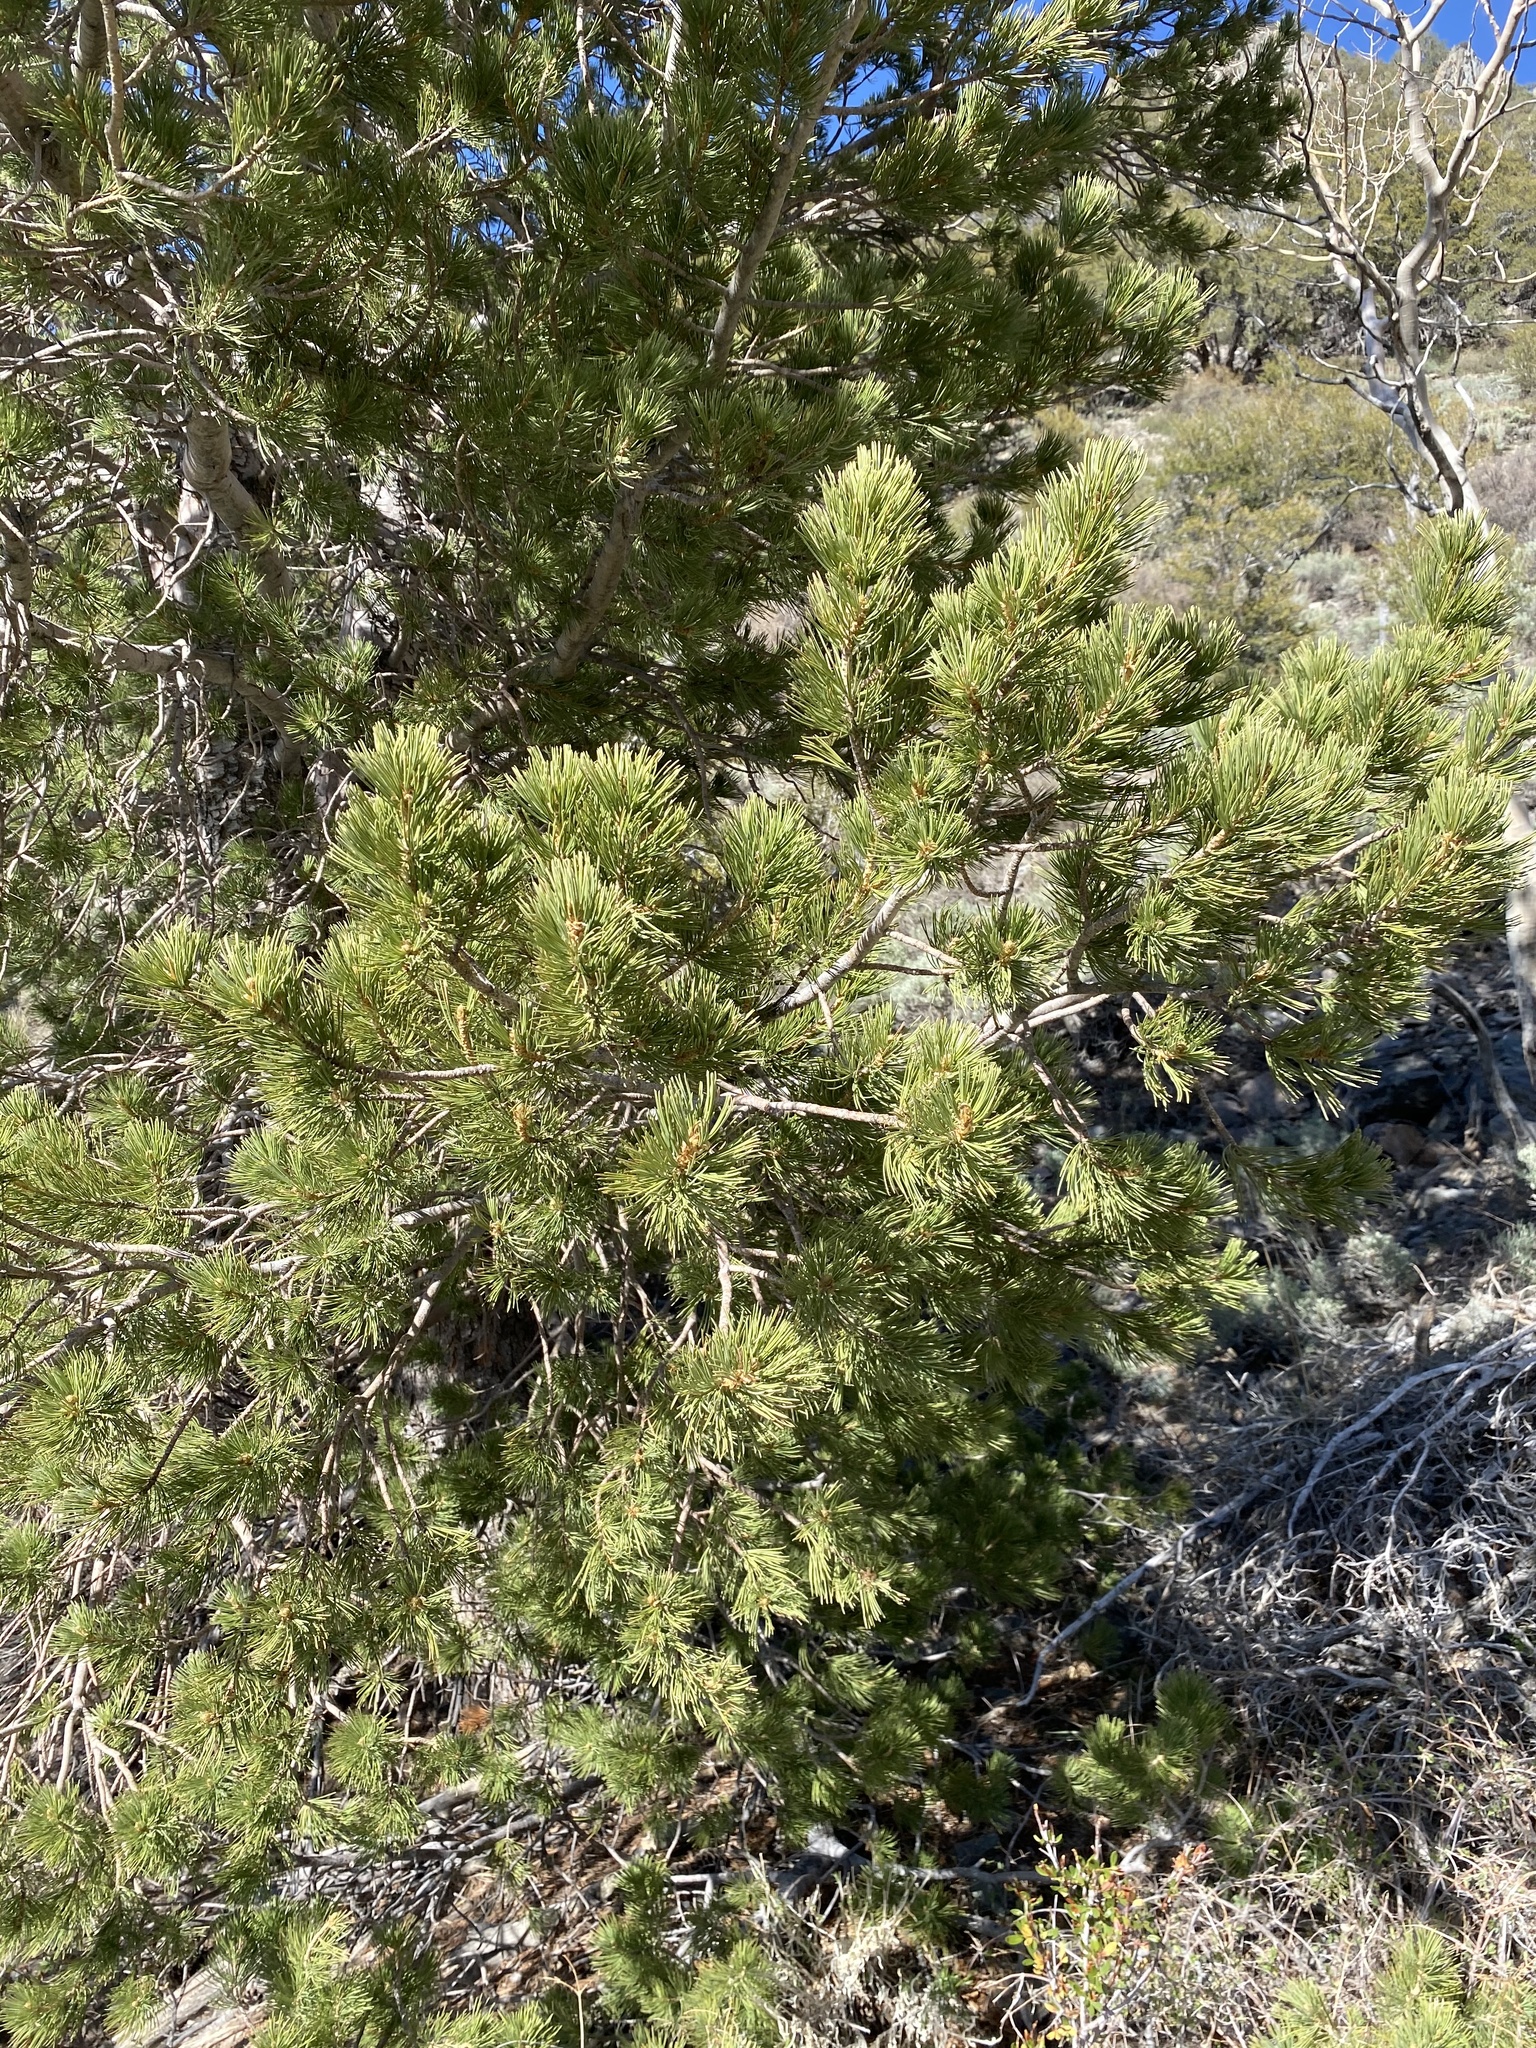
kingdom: Plantae
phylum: Tracheophyta
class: Pinopsida
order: Pinales
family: Pinaceae
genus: Pinus
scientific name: Pinus flexilis
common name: Limber pine
